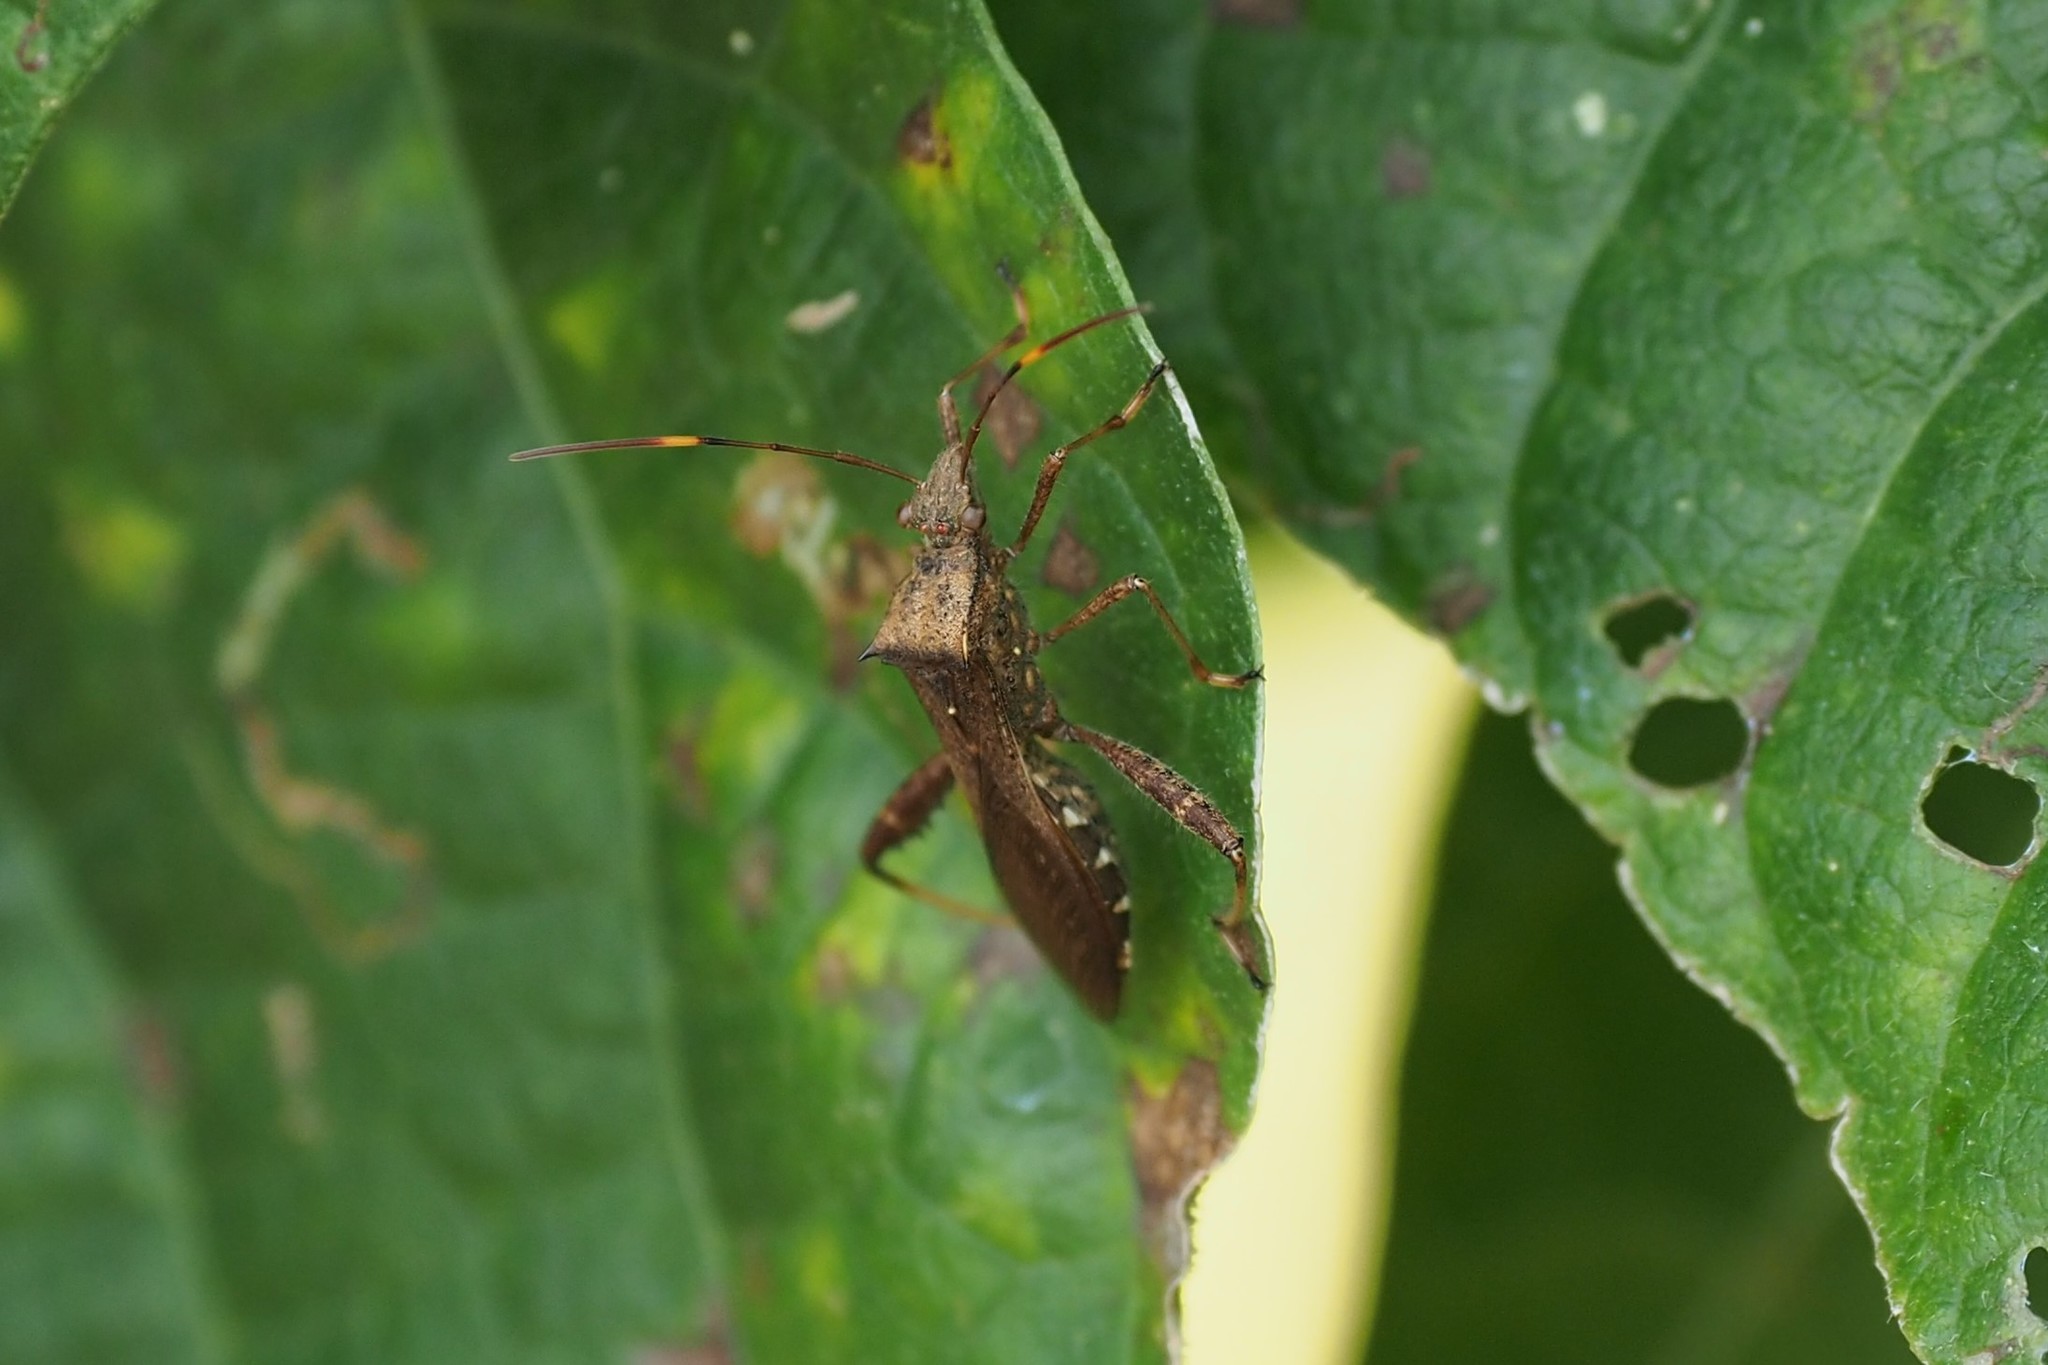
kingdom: Animalia
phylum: Arthropoda
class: Insecta
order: Hemiptera
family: Alydidae
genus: Riptortus
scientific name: Riptortus pedestris
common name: Bean bug
